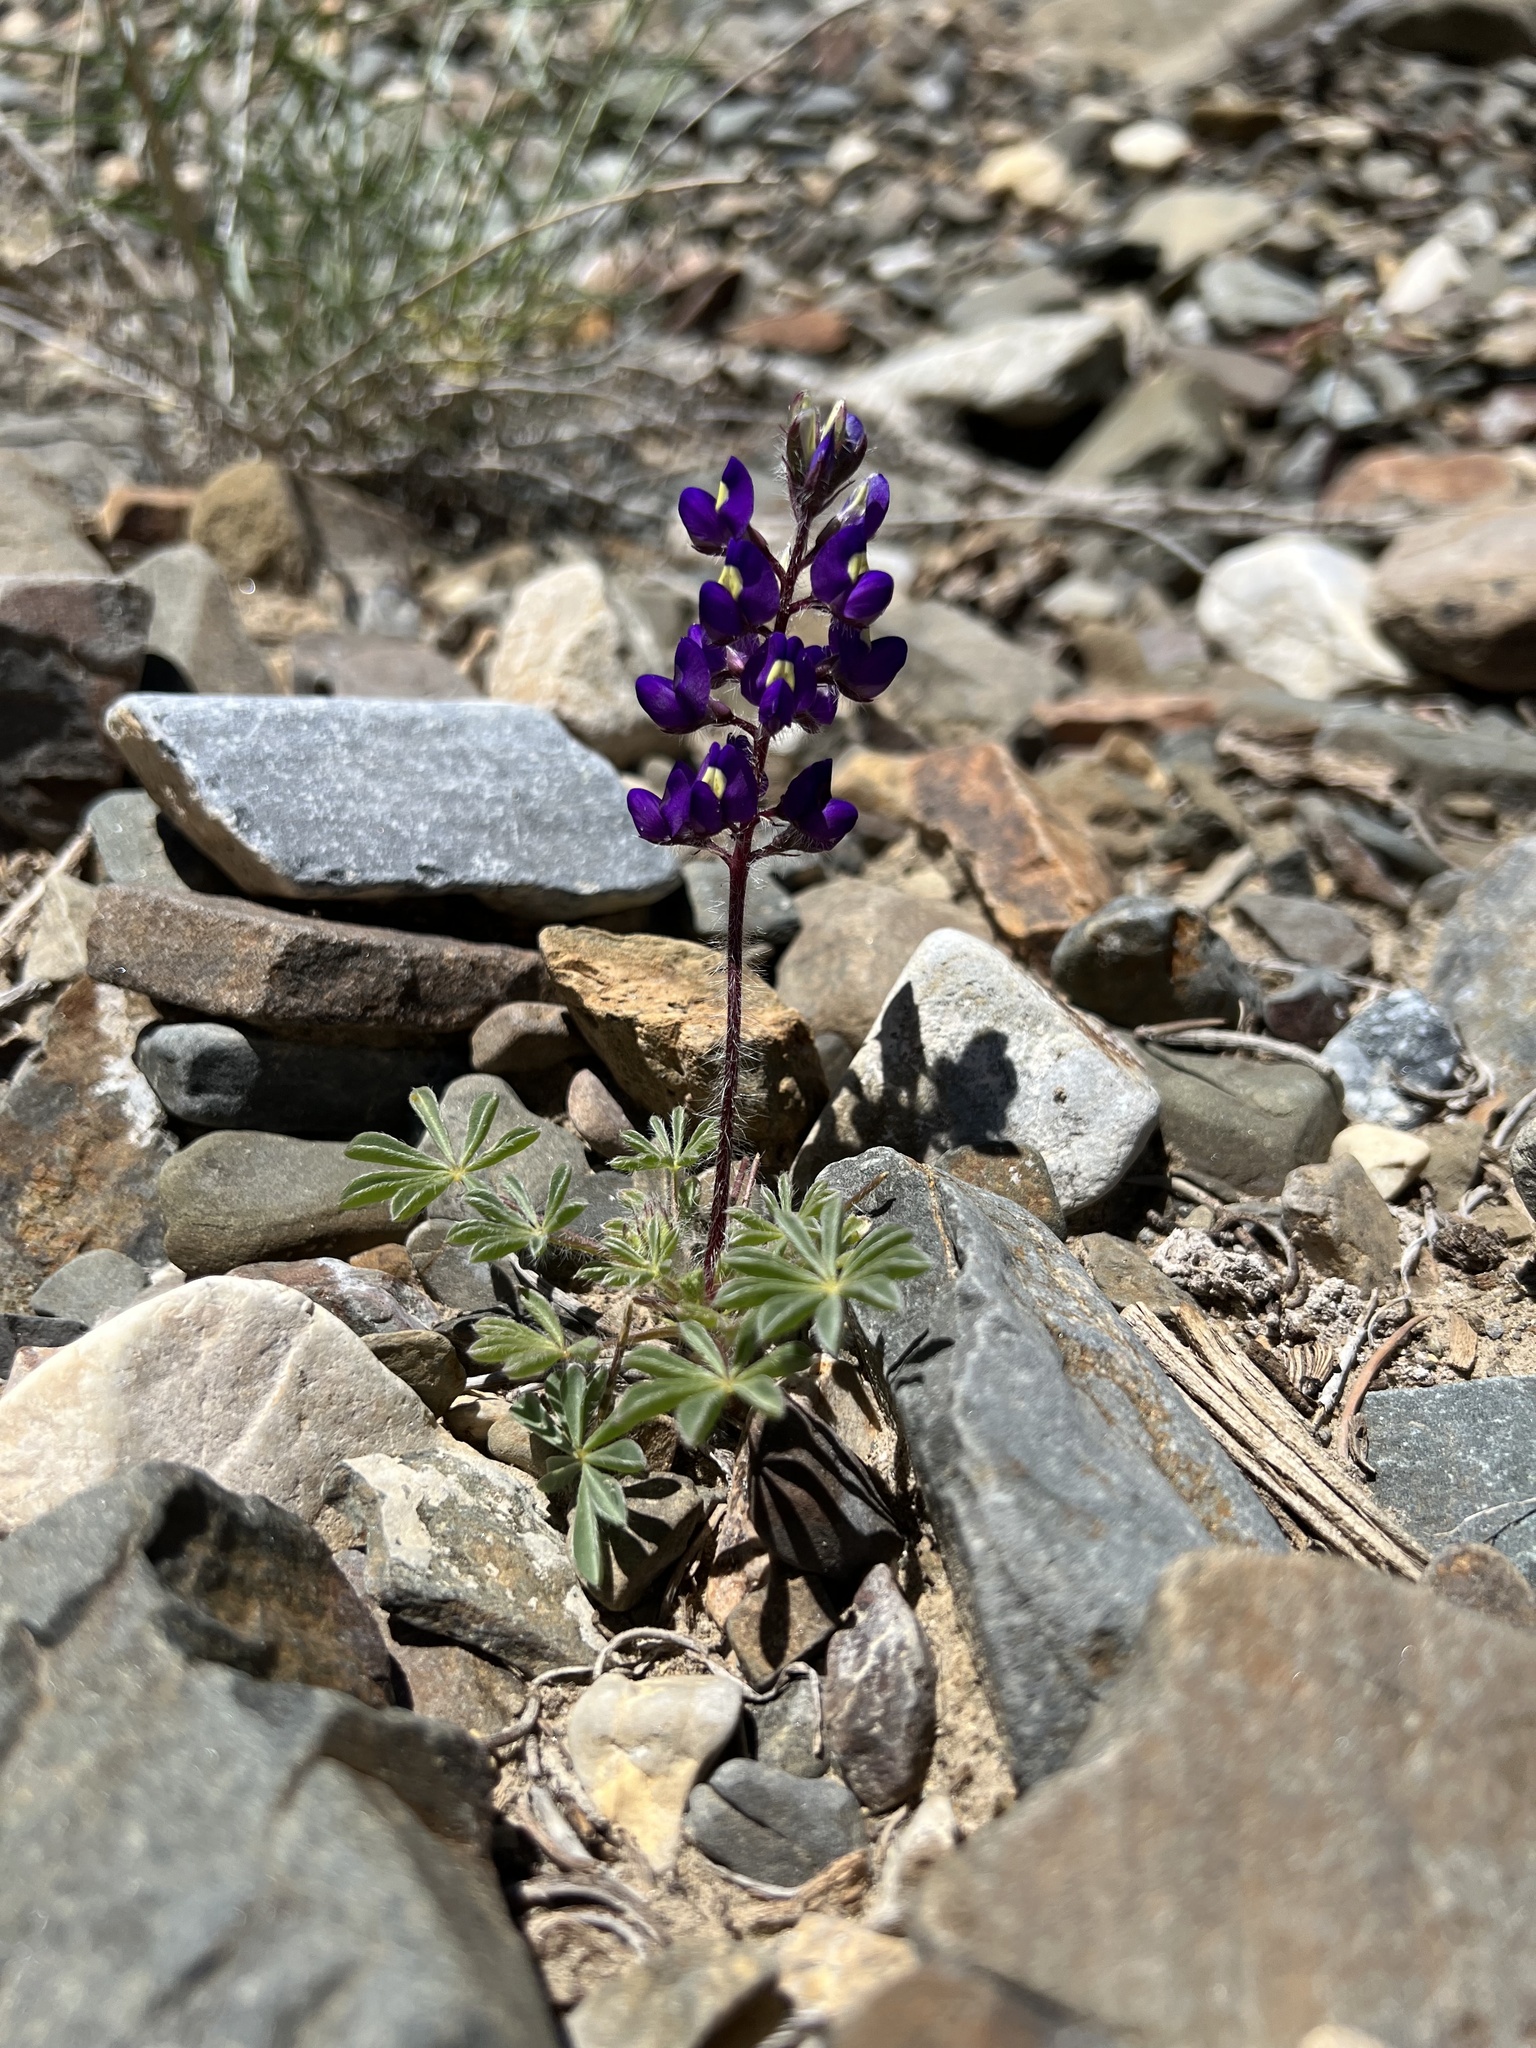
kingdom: Plantae
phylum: Tracheophyta
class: Magnoliopsida
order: Fabales
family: Fabaceae
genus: Lupinus
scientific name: Lupinus flavoculatus
